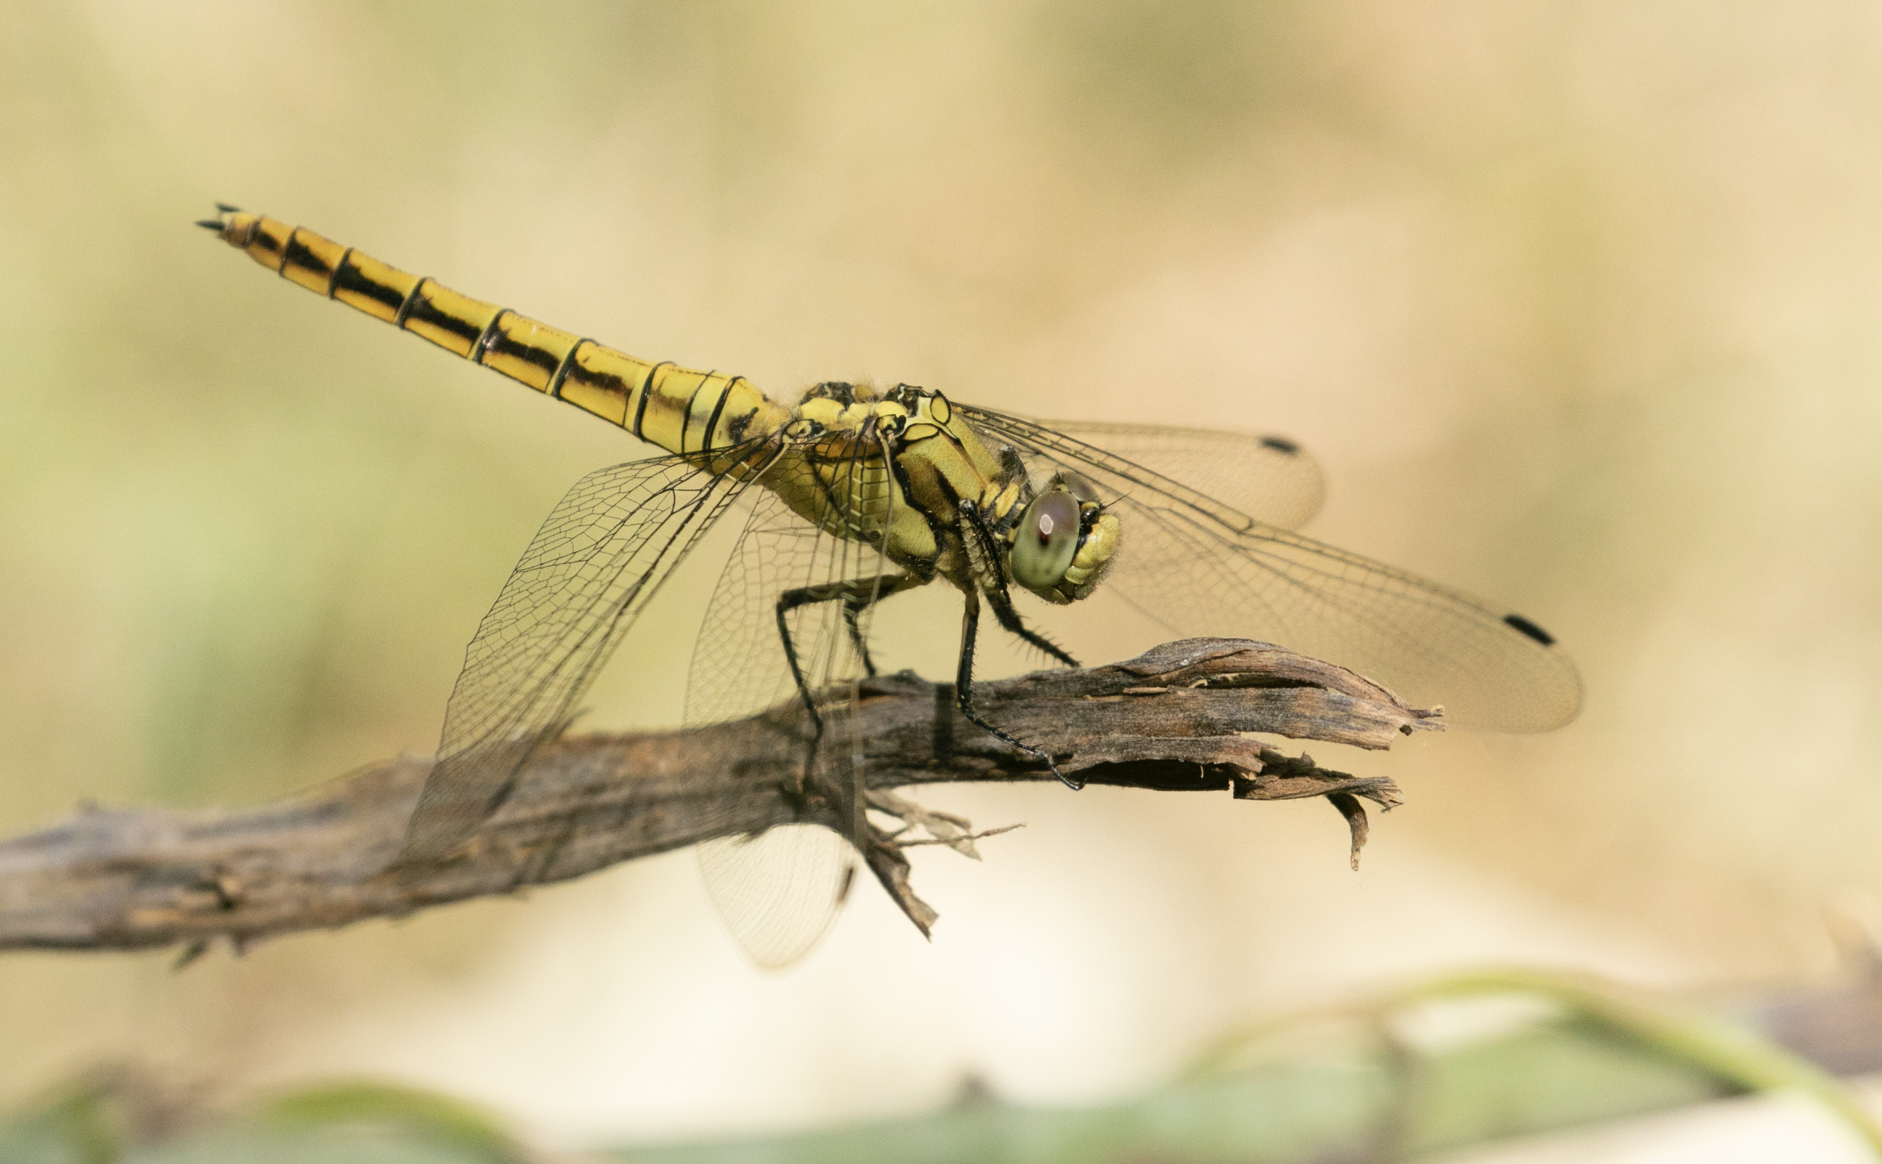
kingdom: Animalia
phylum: Arthropoda
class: Insecta
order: Odonata
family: Libellulidae
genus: Orthetrum
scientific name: Orthetrum cancellatum
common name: Black-tailed skimmer
